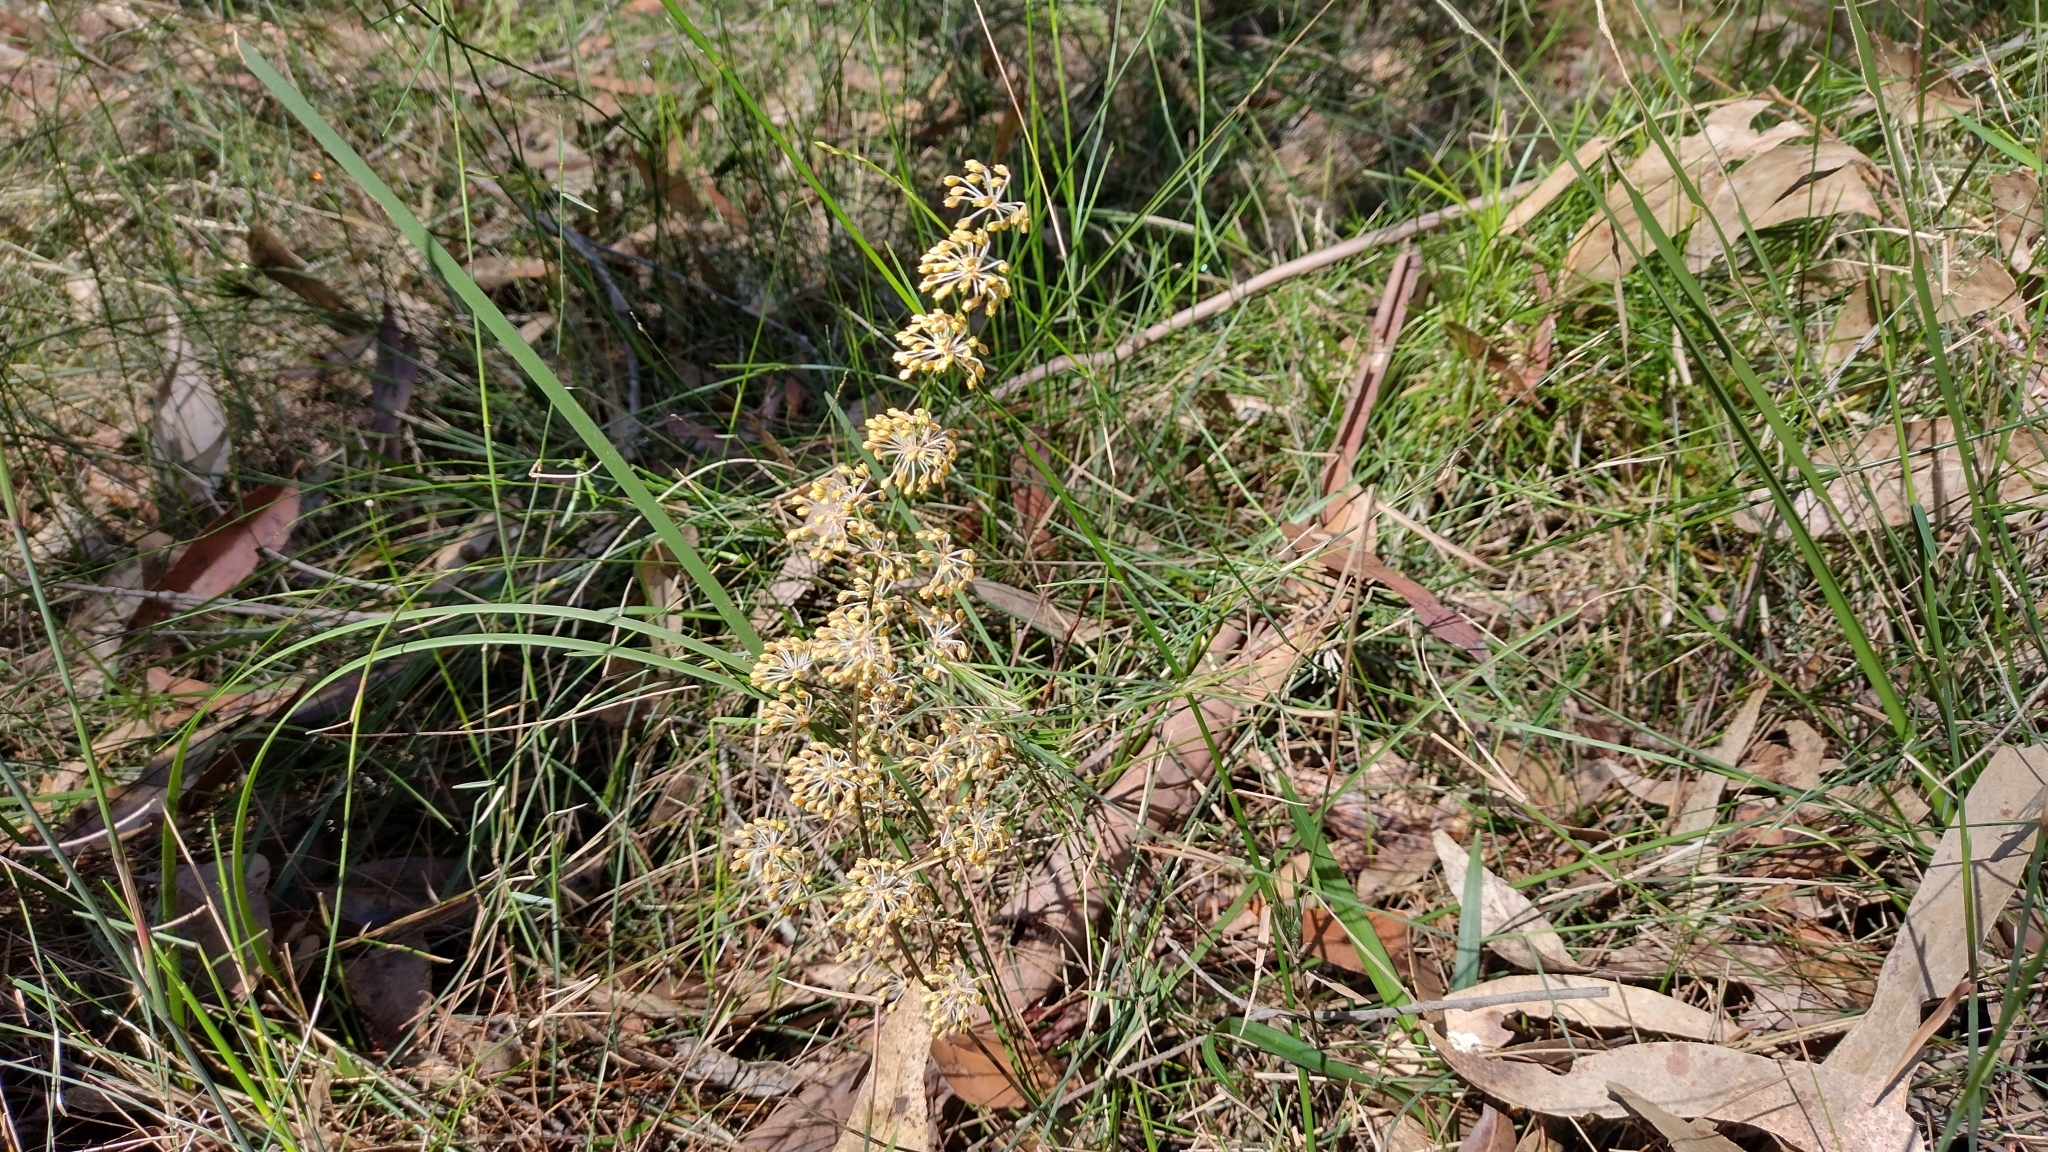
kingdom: Plantae
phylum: Tracheophyta
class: Liliopsida
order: Asparagales
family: Asparagaceae
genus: Lomandra
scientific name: Lomandra multiflora
